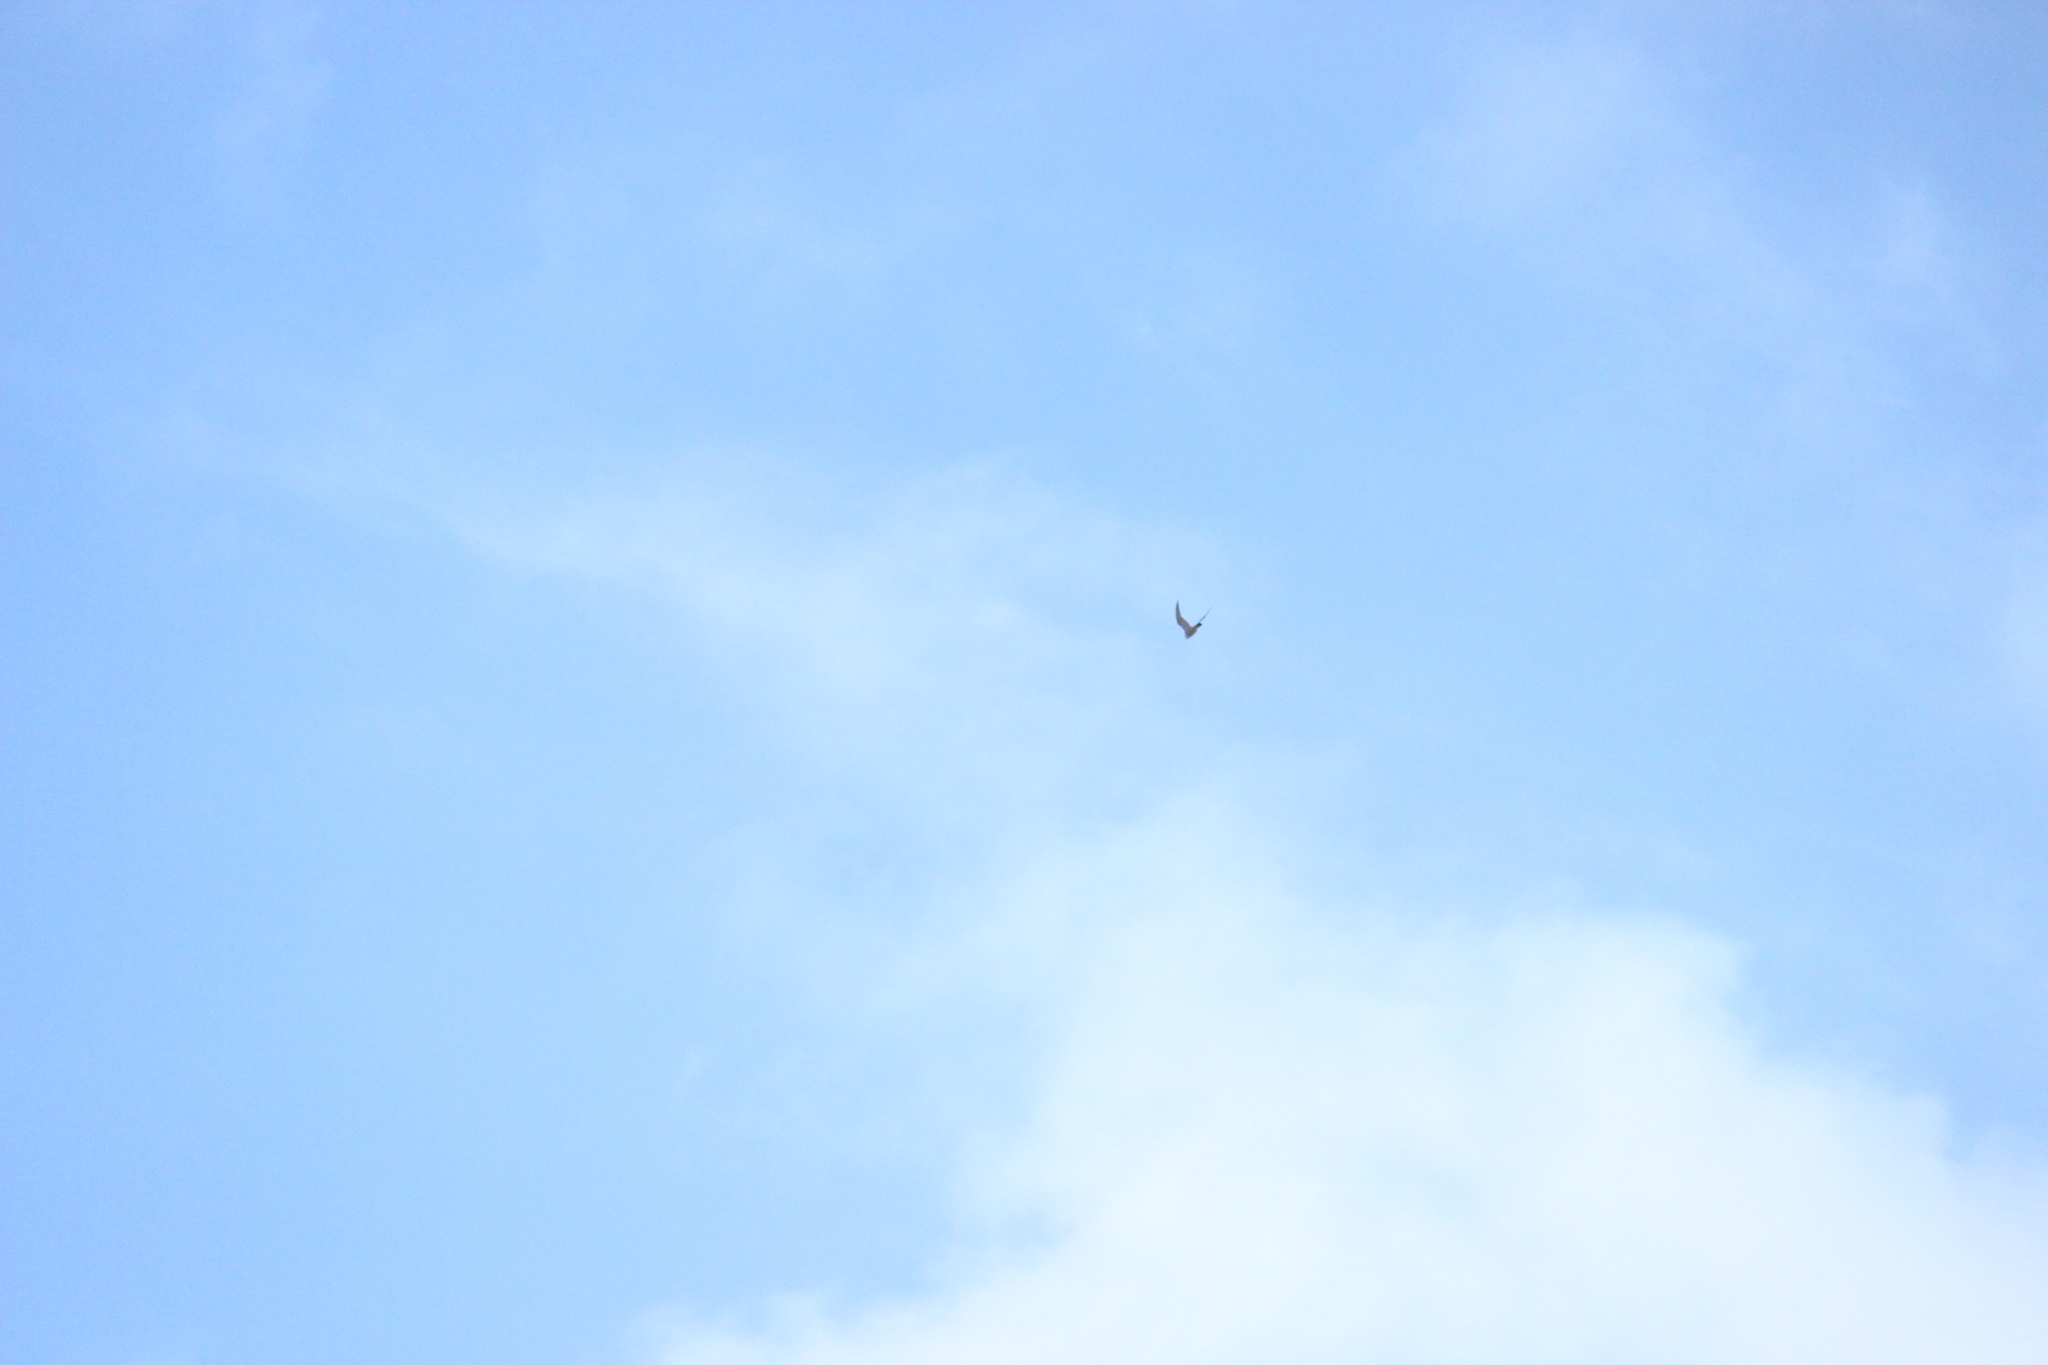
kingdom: Animalia
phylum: Chordata
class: Aves
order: Falconiformes
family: Falconidae
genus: Falco
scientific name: Falco peregrinus
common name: Peregrine falcon
